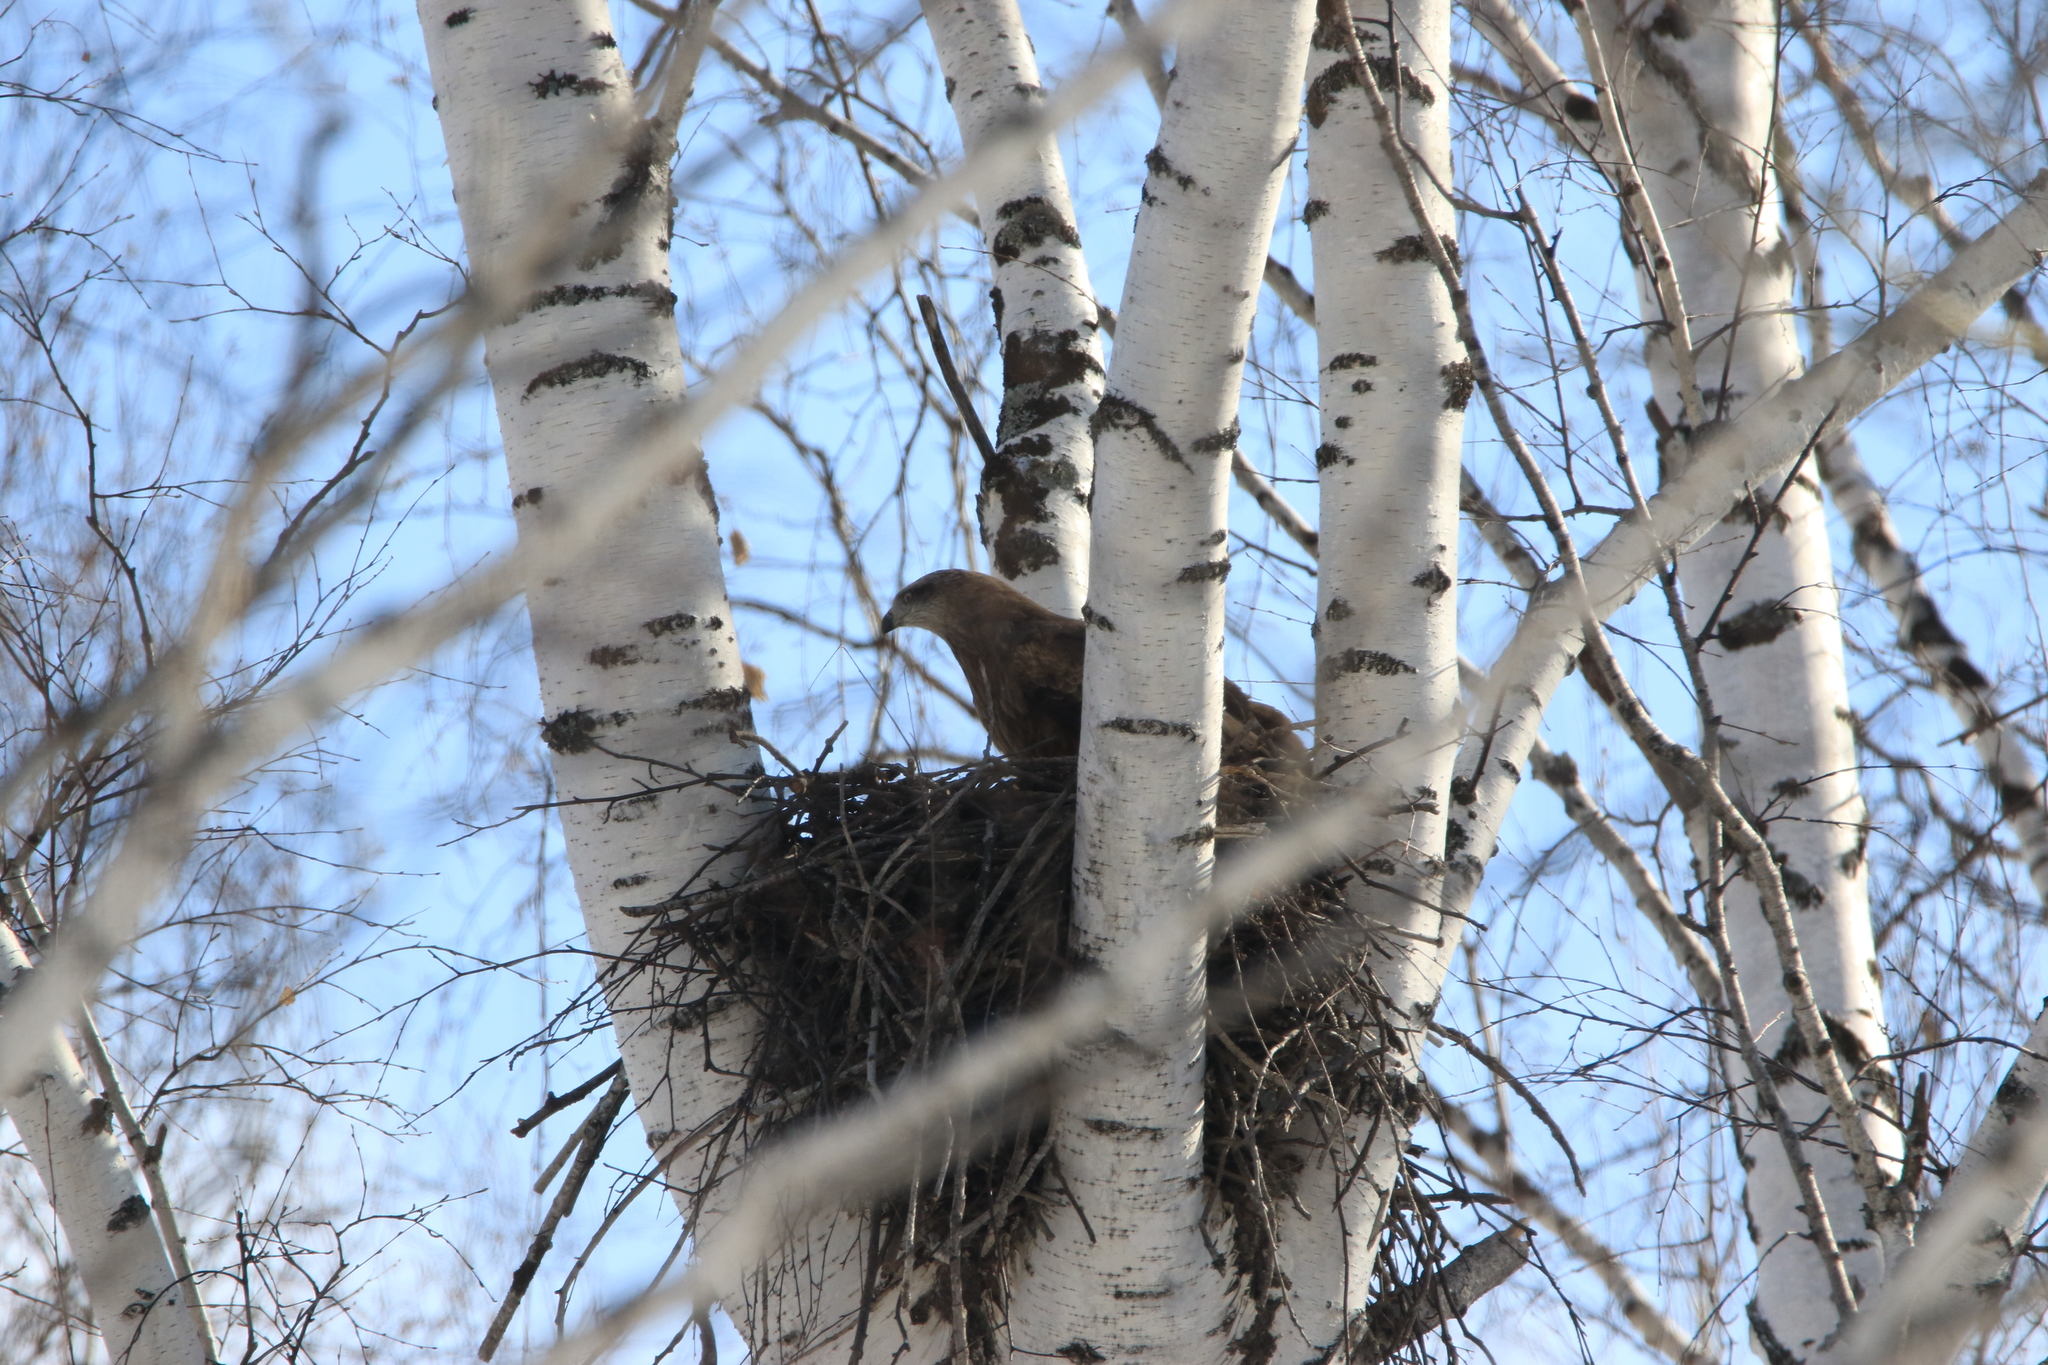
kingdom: Animalia
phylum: Chordata
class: Aves
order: Accipitriformes
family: Accipitridae
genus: Milvus
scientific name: Milvus migrans
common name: Black kite
